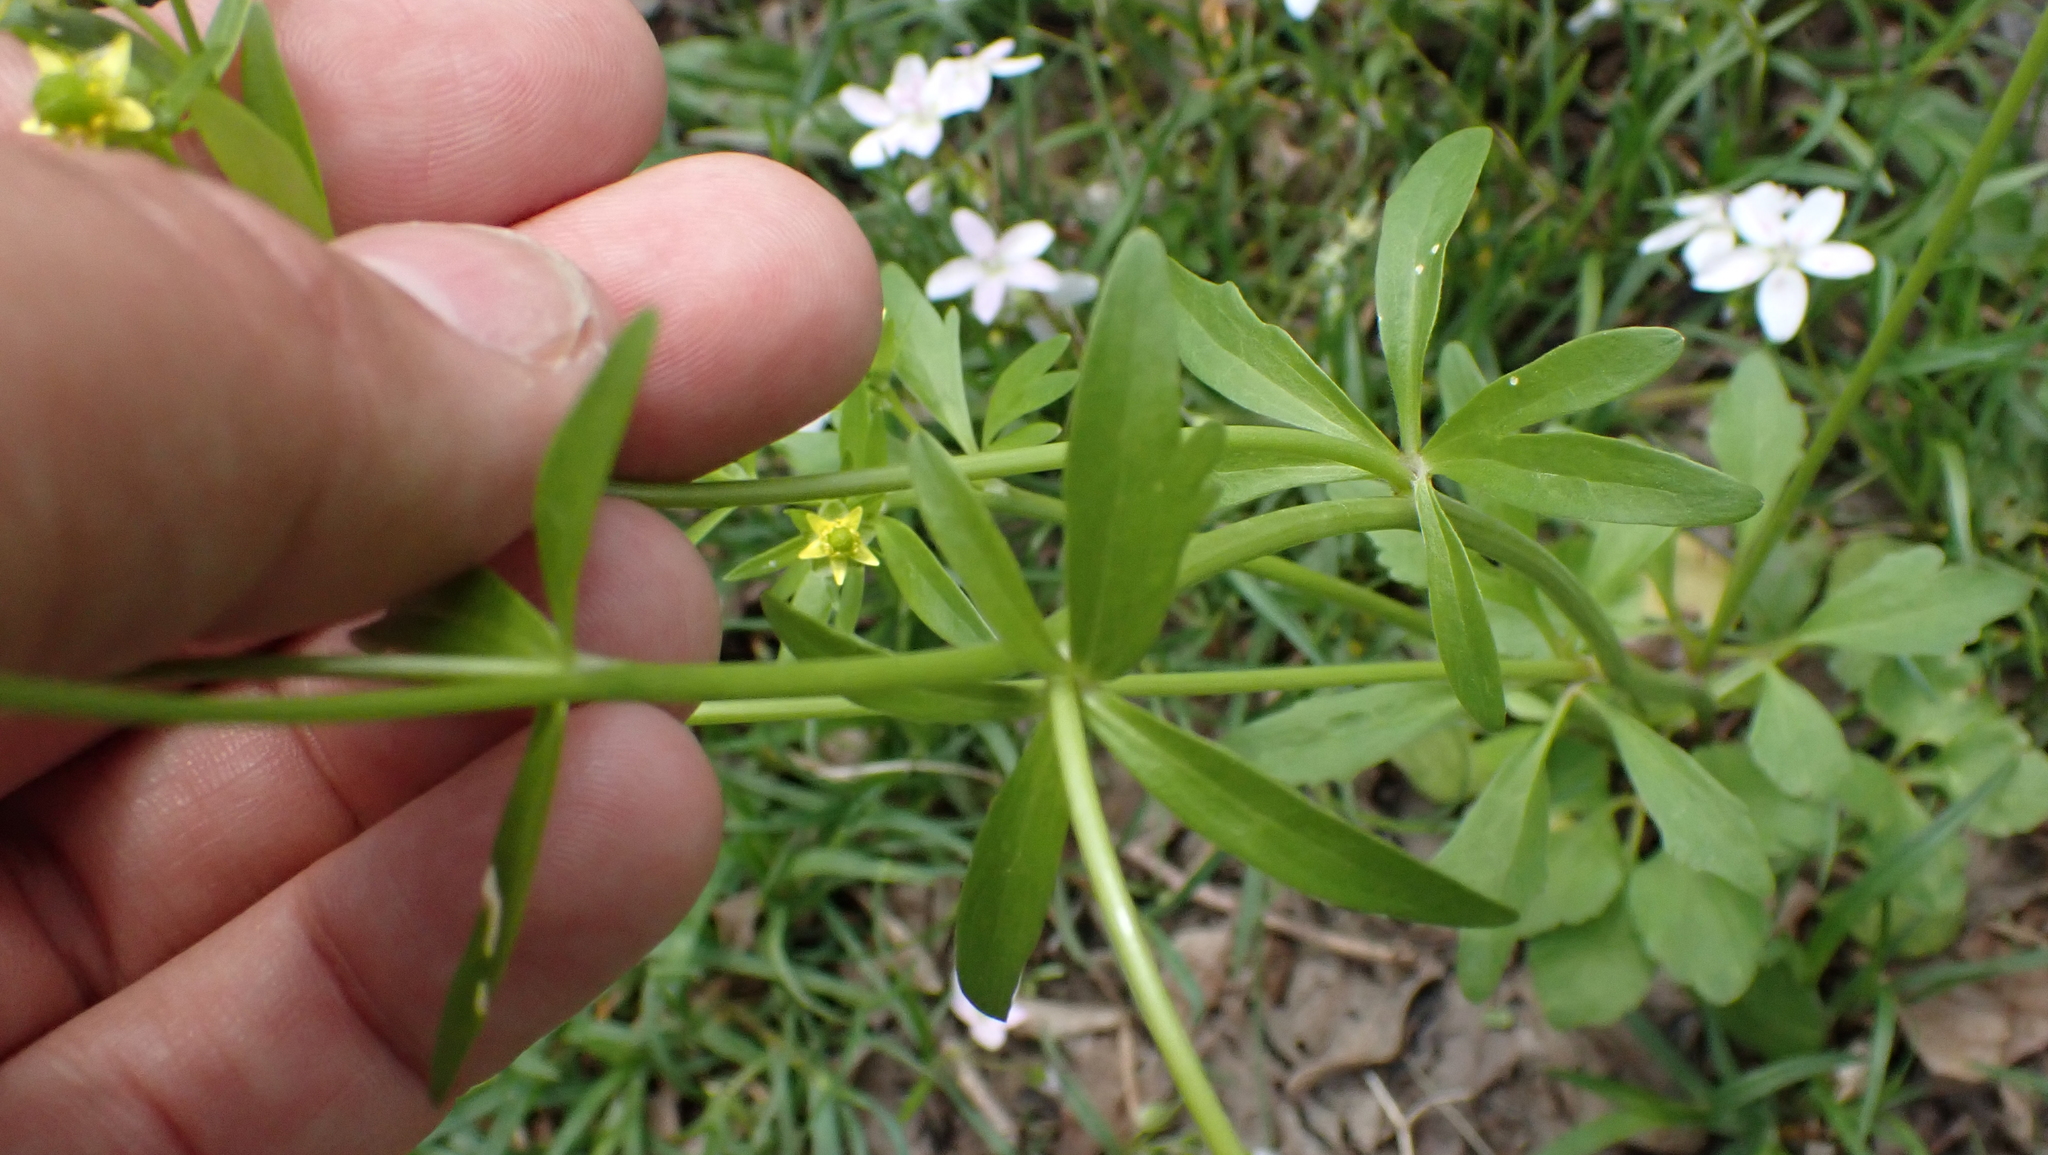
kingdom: Plantae
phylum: Tracheophyta
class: Magnoliopsida
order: Ranunculales
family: Ranunculaceae
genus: Ranunculus
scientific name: Ranunculus abortivus
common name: Early wood buttercup
